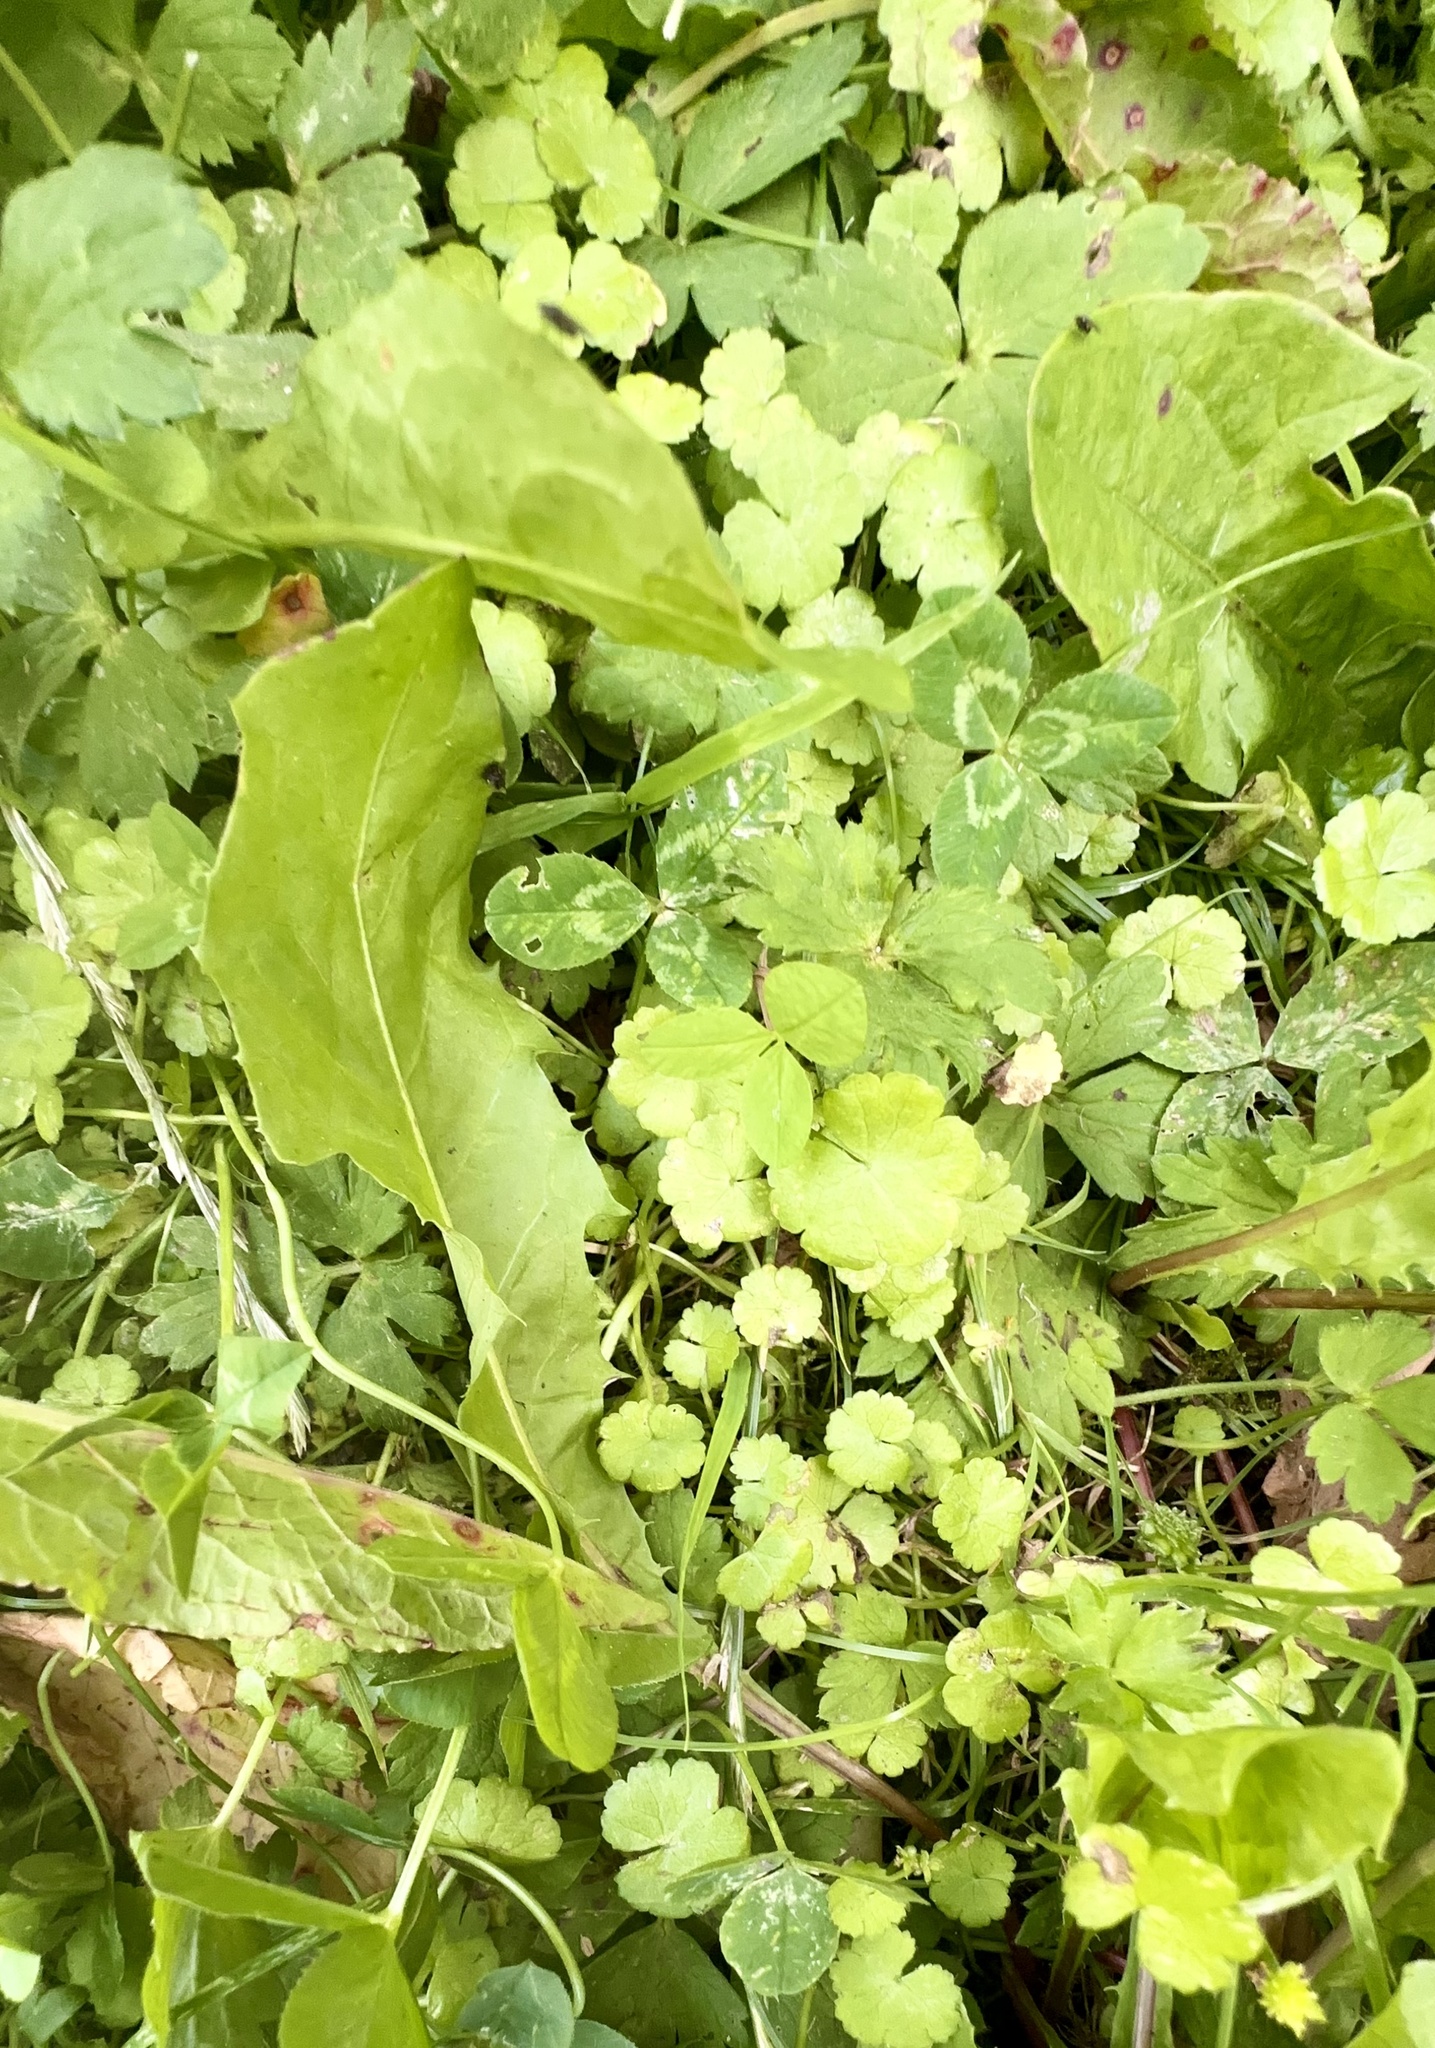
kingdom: Plantae
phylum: Tracheophyta
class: Magnoliopsida
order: Apiales
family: Araliaceae
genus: Hydrocotyle
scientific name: Hydrocotyle heteromeria
